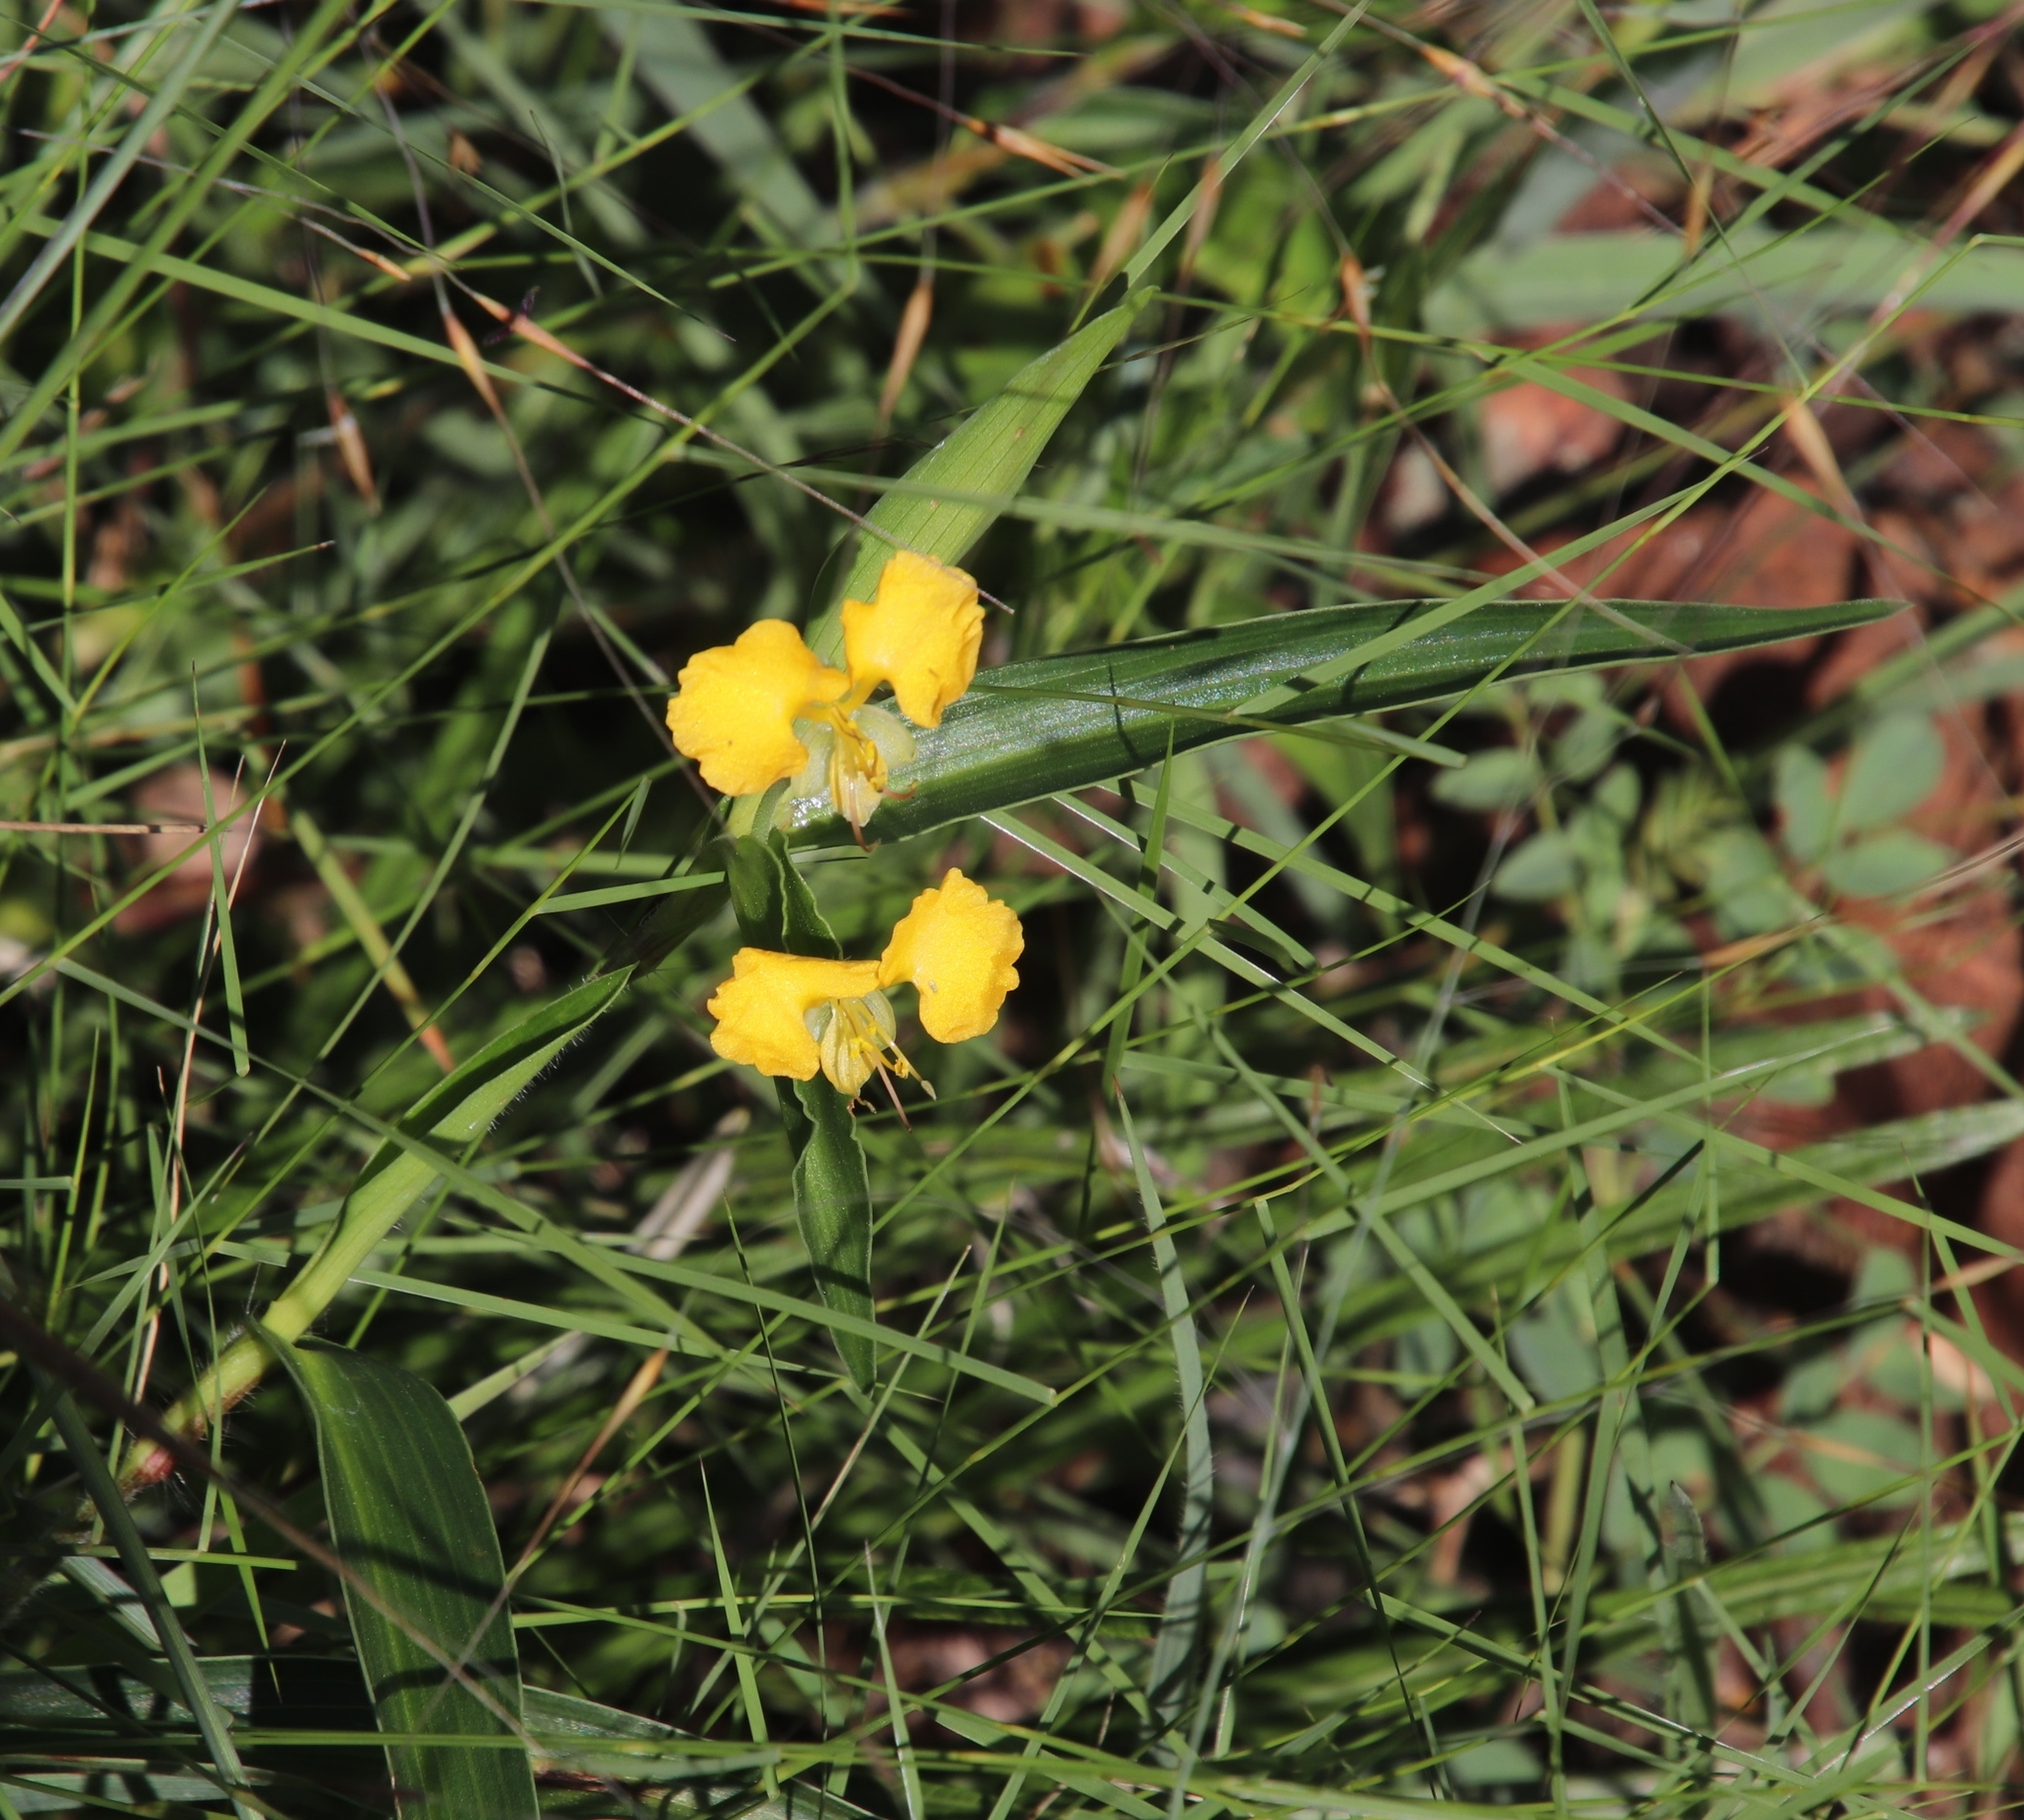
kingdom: Plantae
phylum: Tracheophyta
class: Liliopsida
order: Commelinales
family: Commelinaceae
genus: Commelina
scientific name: Commelina africana
